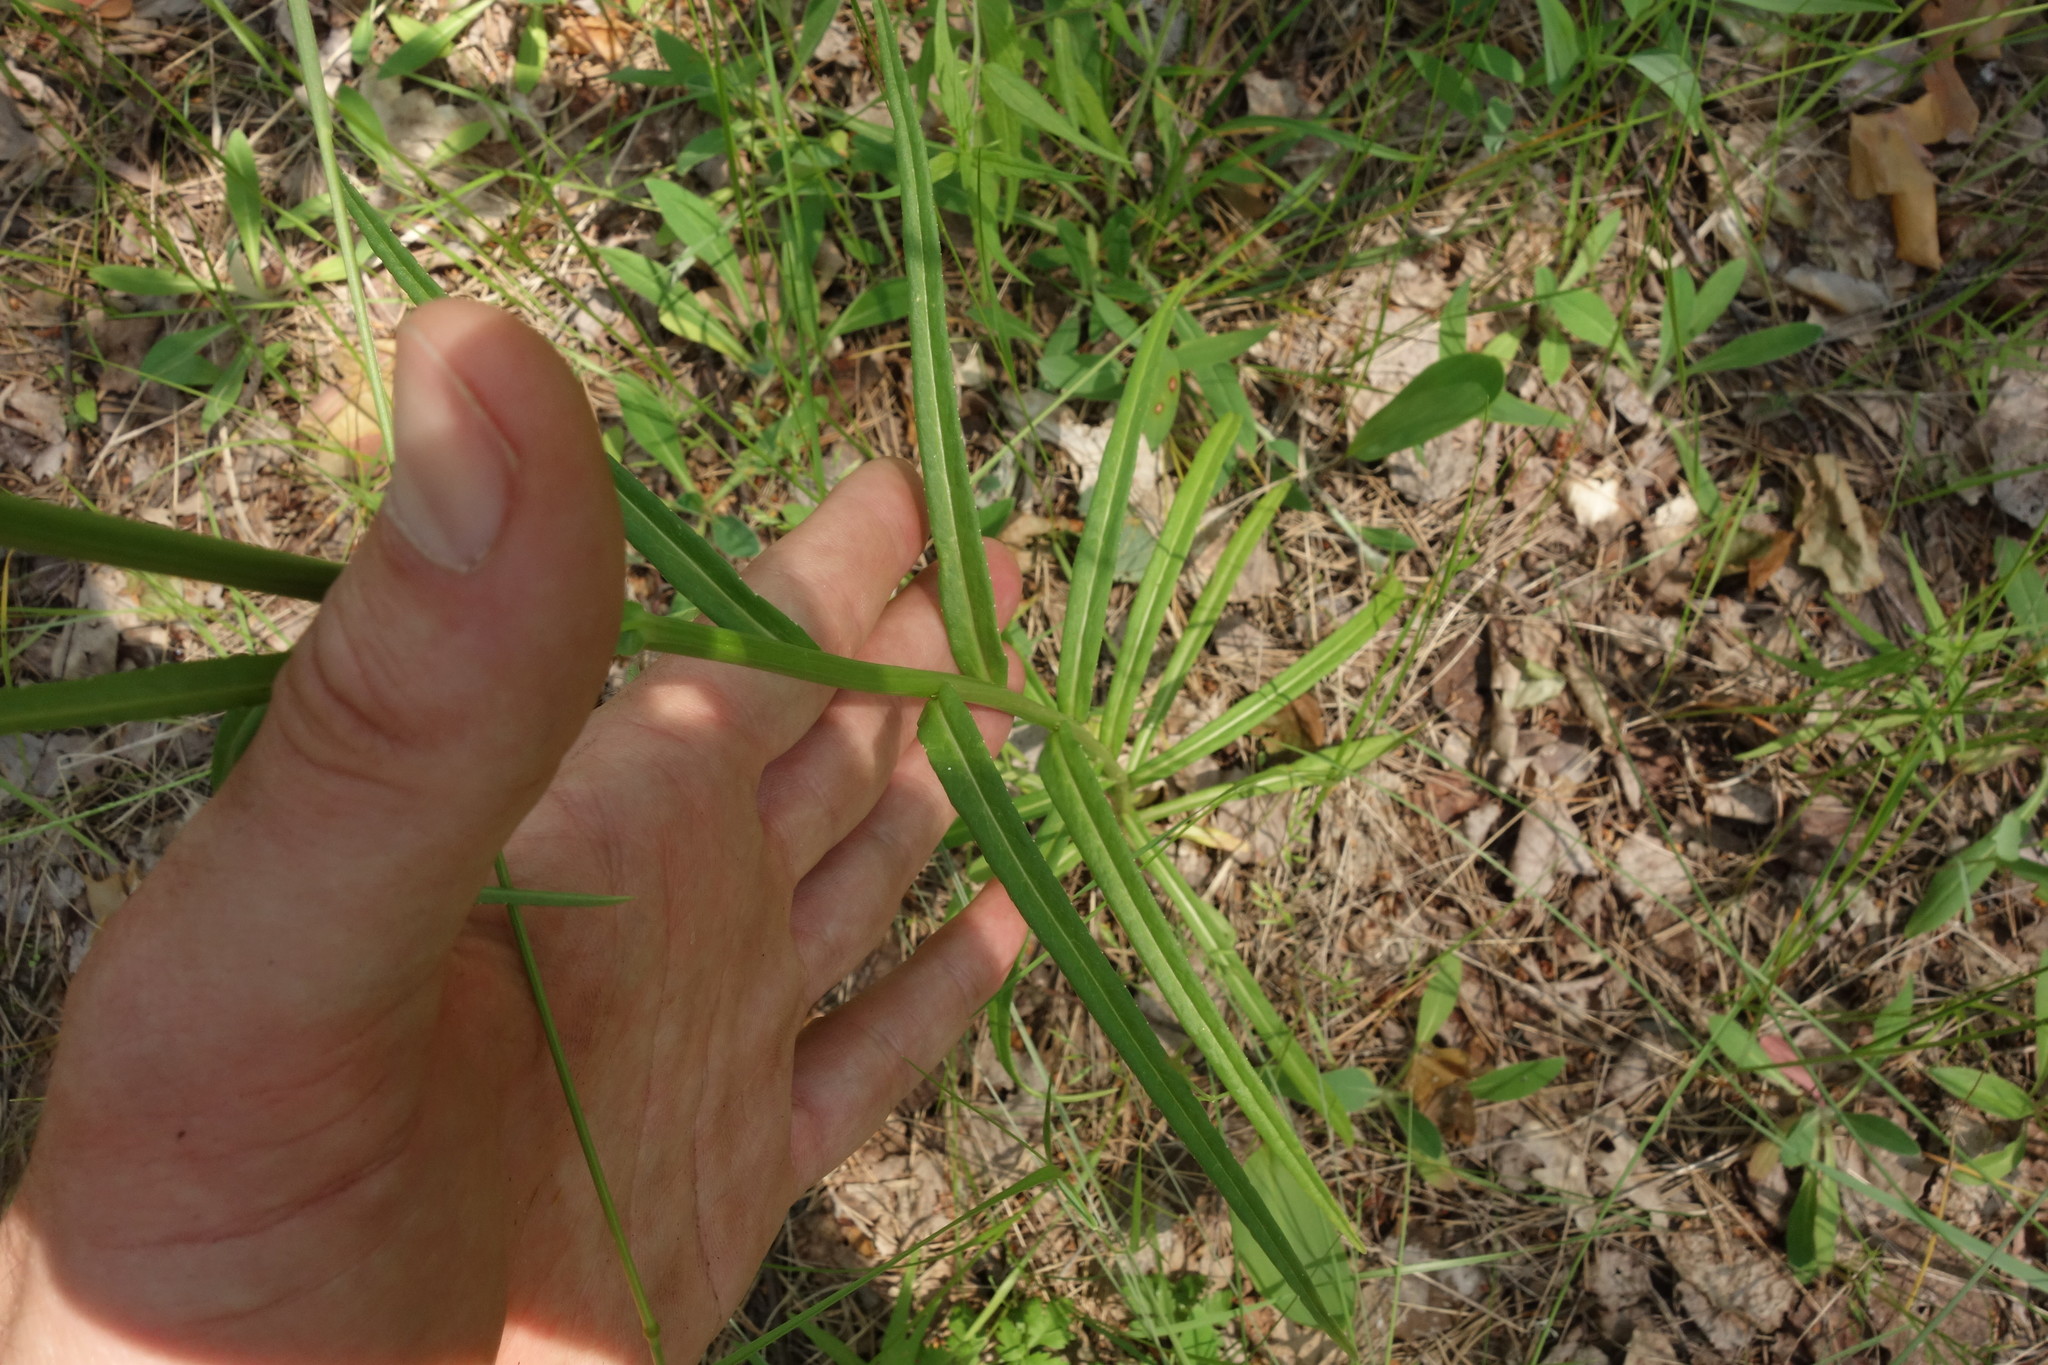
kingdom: Plantae
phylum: Tracheophyta
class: Magnoliopsida
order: Asterales
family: Campanulaceae
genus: Campanula
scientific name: Campanula persicifolia
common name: Peach-leaved bellflower
